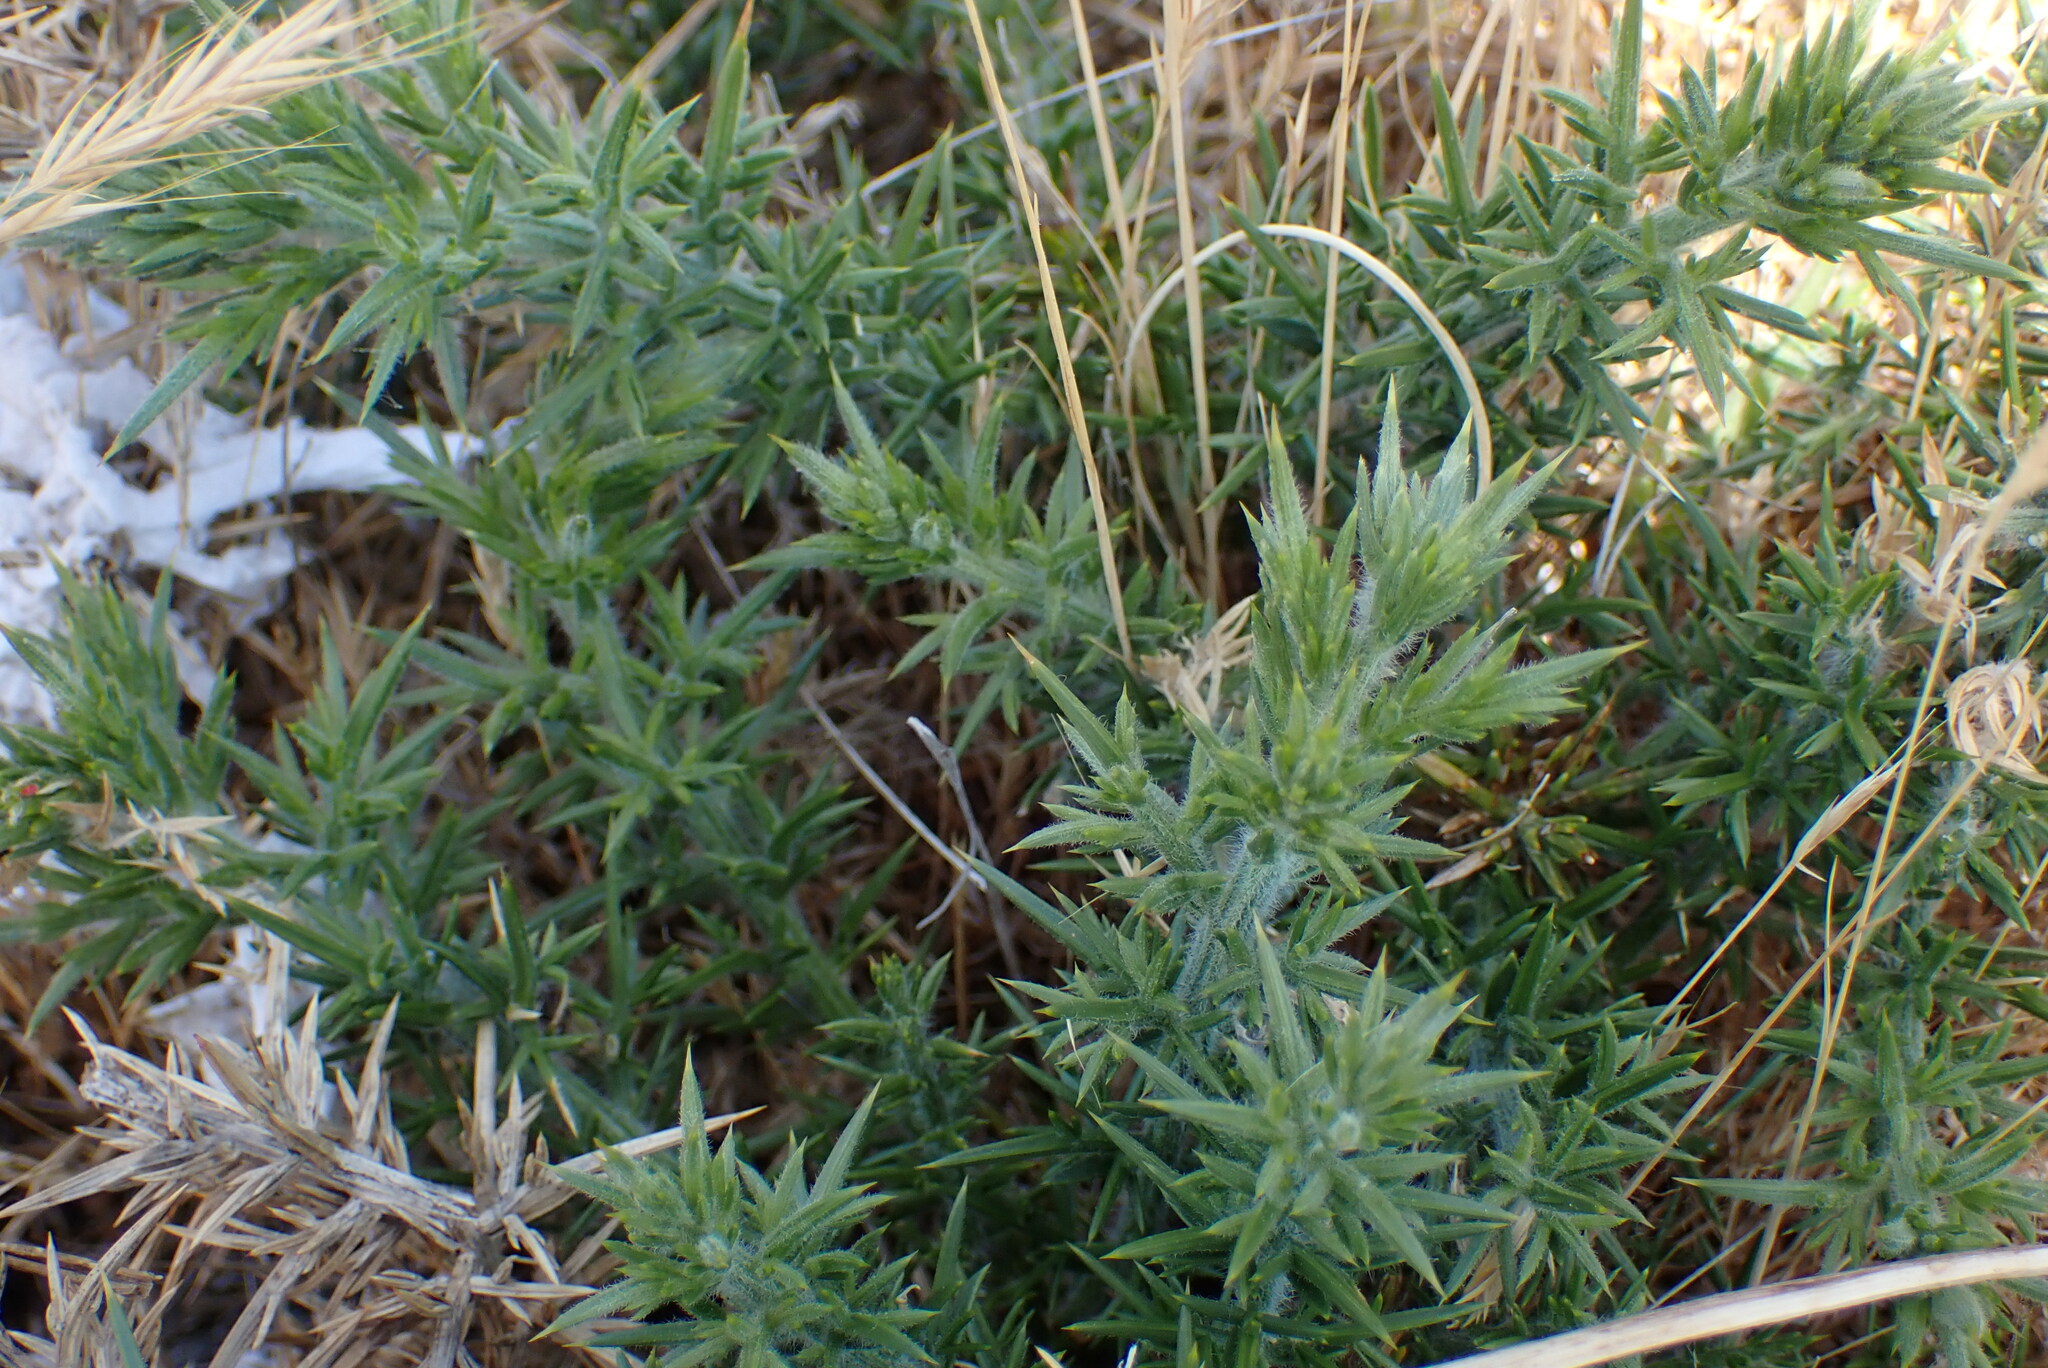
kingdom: Plantae
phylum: Tracheophyta
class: Magnoliopsida
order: Fabales
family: Fabaceae
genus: Ulex
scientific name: Ulex europaeus
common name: Common gorse
